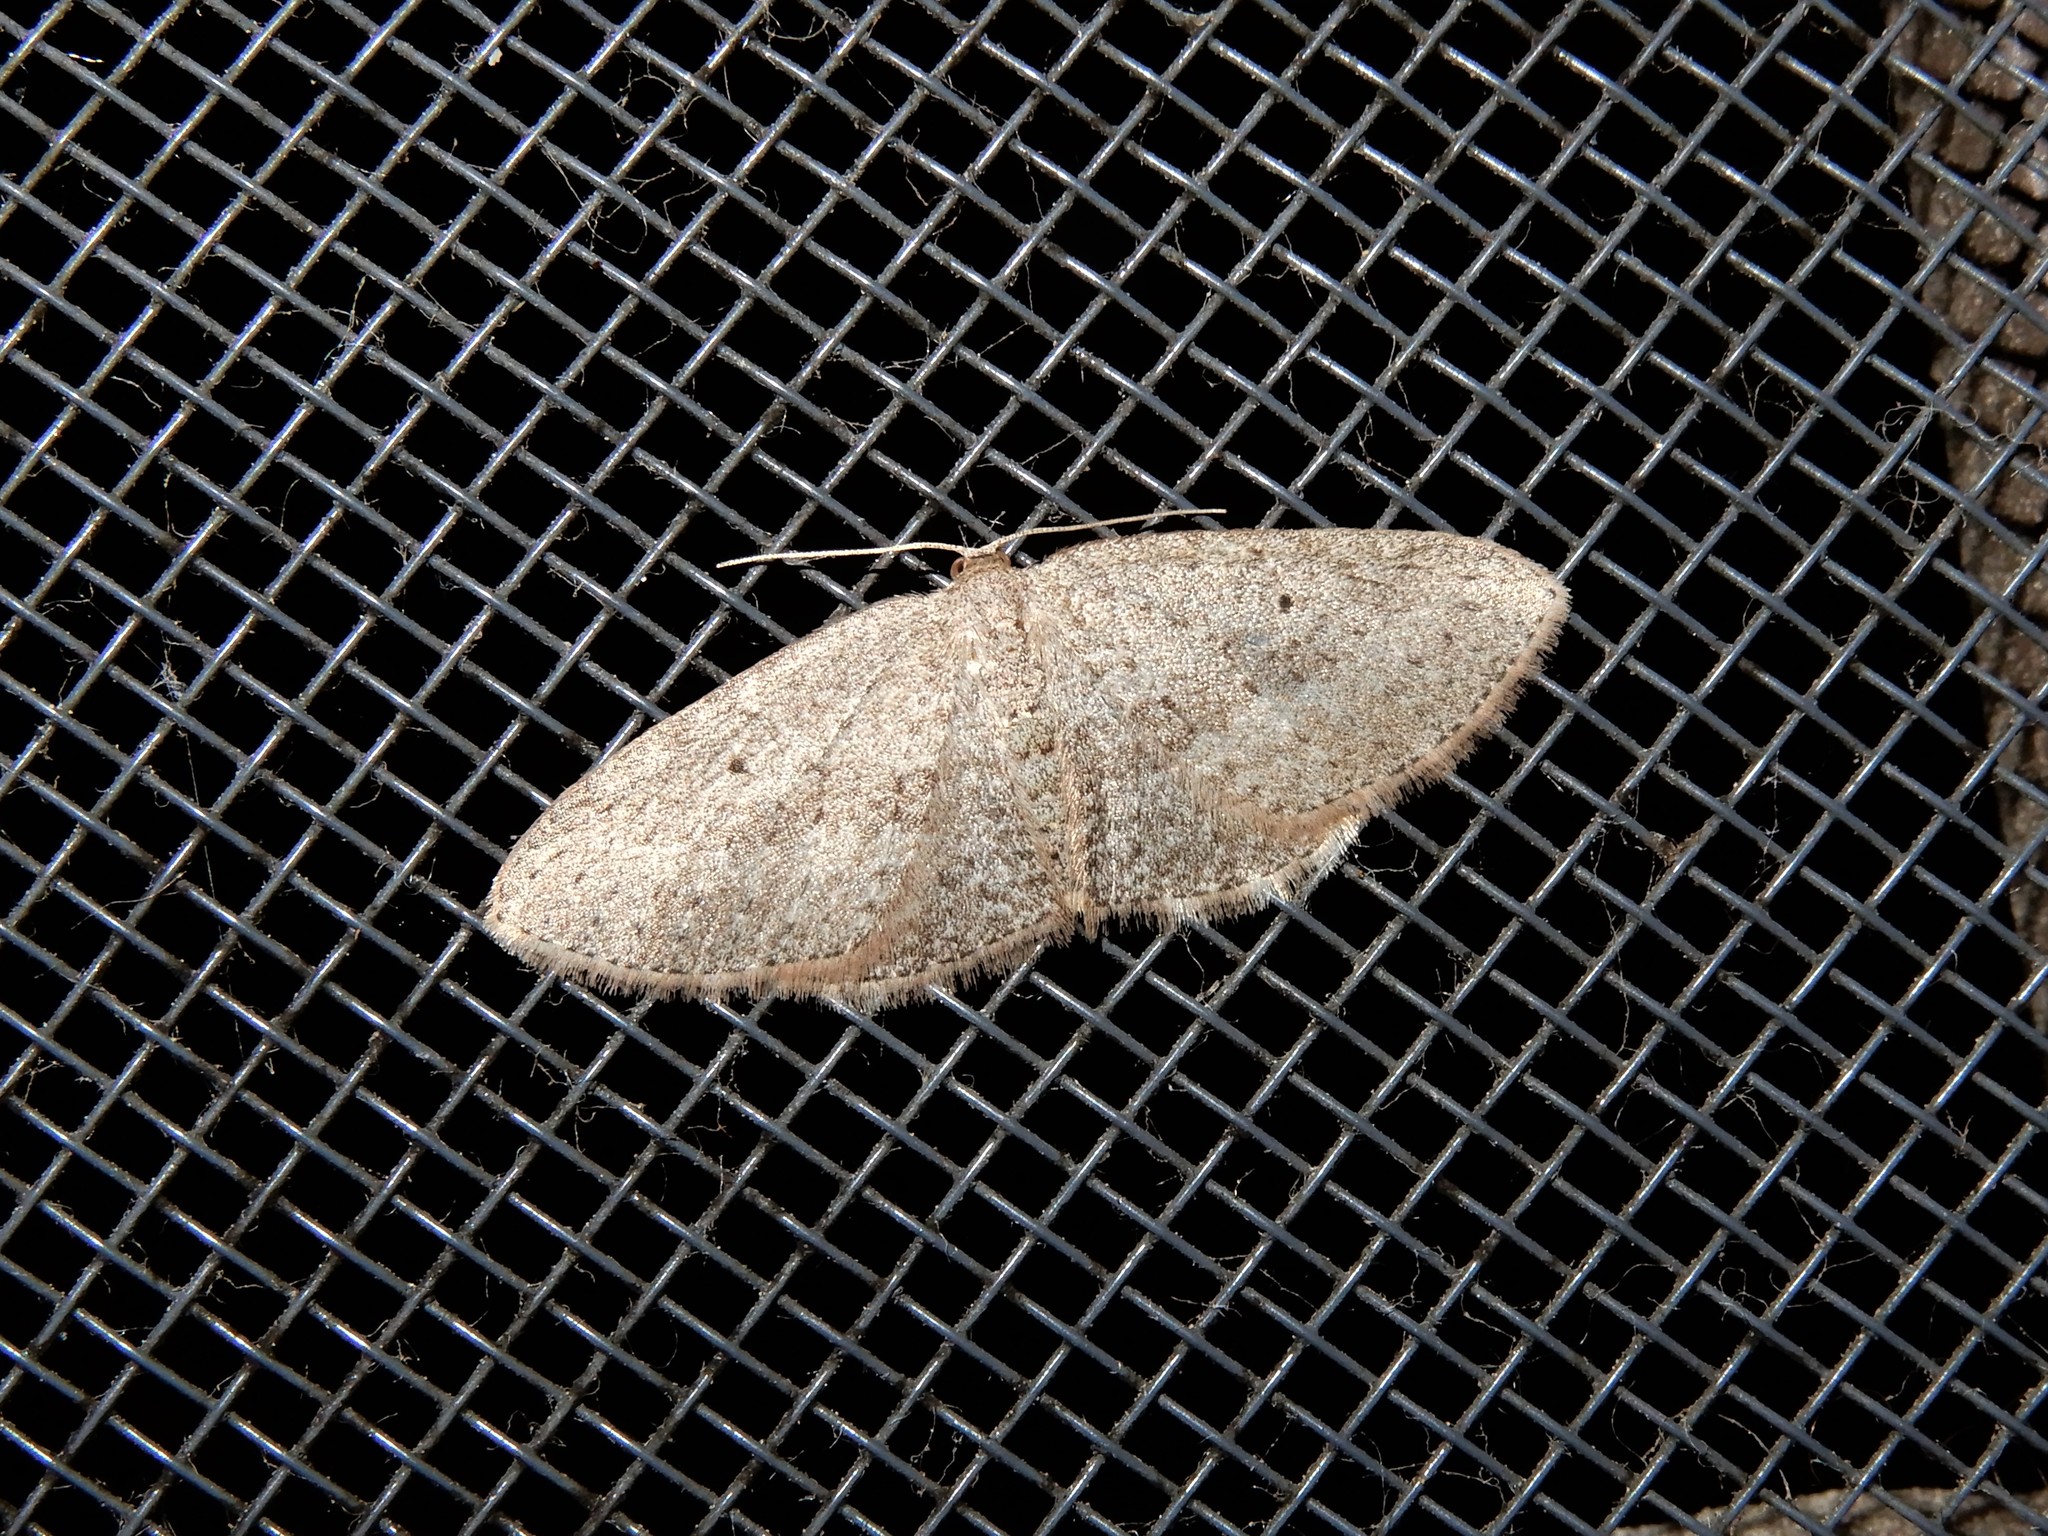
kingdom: Animalia
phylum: Arthropoda
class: Insecta
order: Lepidoptera
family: Geometridae
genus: Poecilasthena
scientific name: Poecilasthena schistaria
